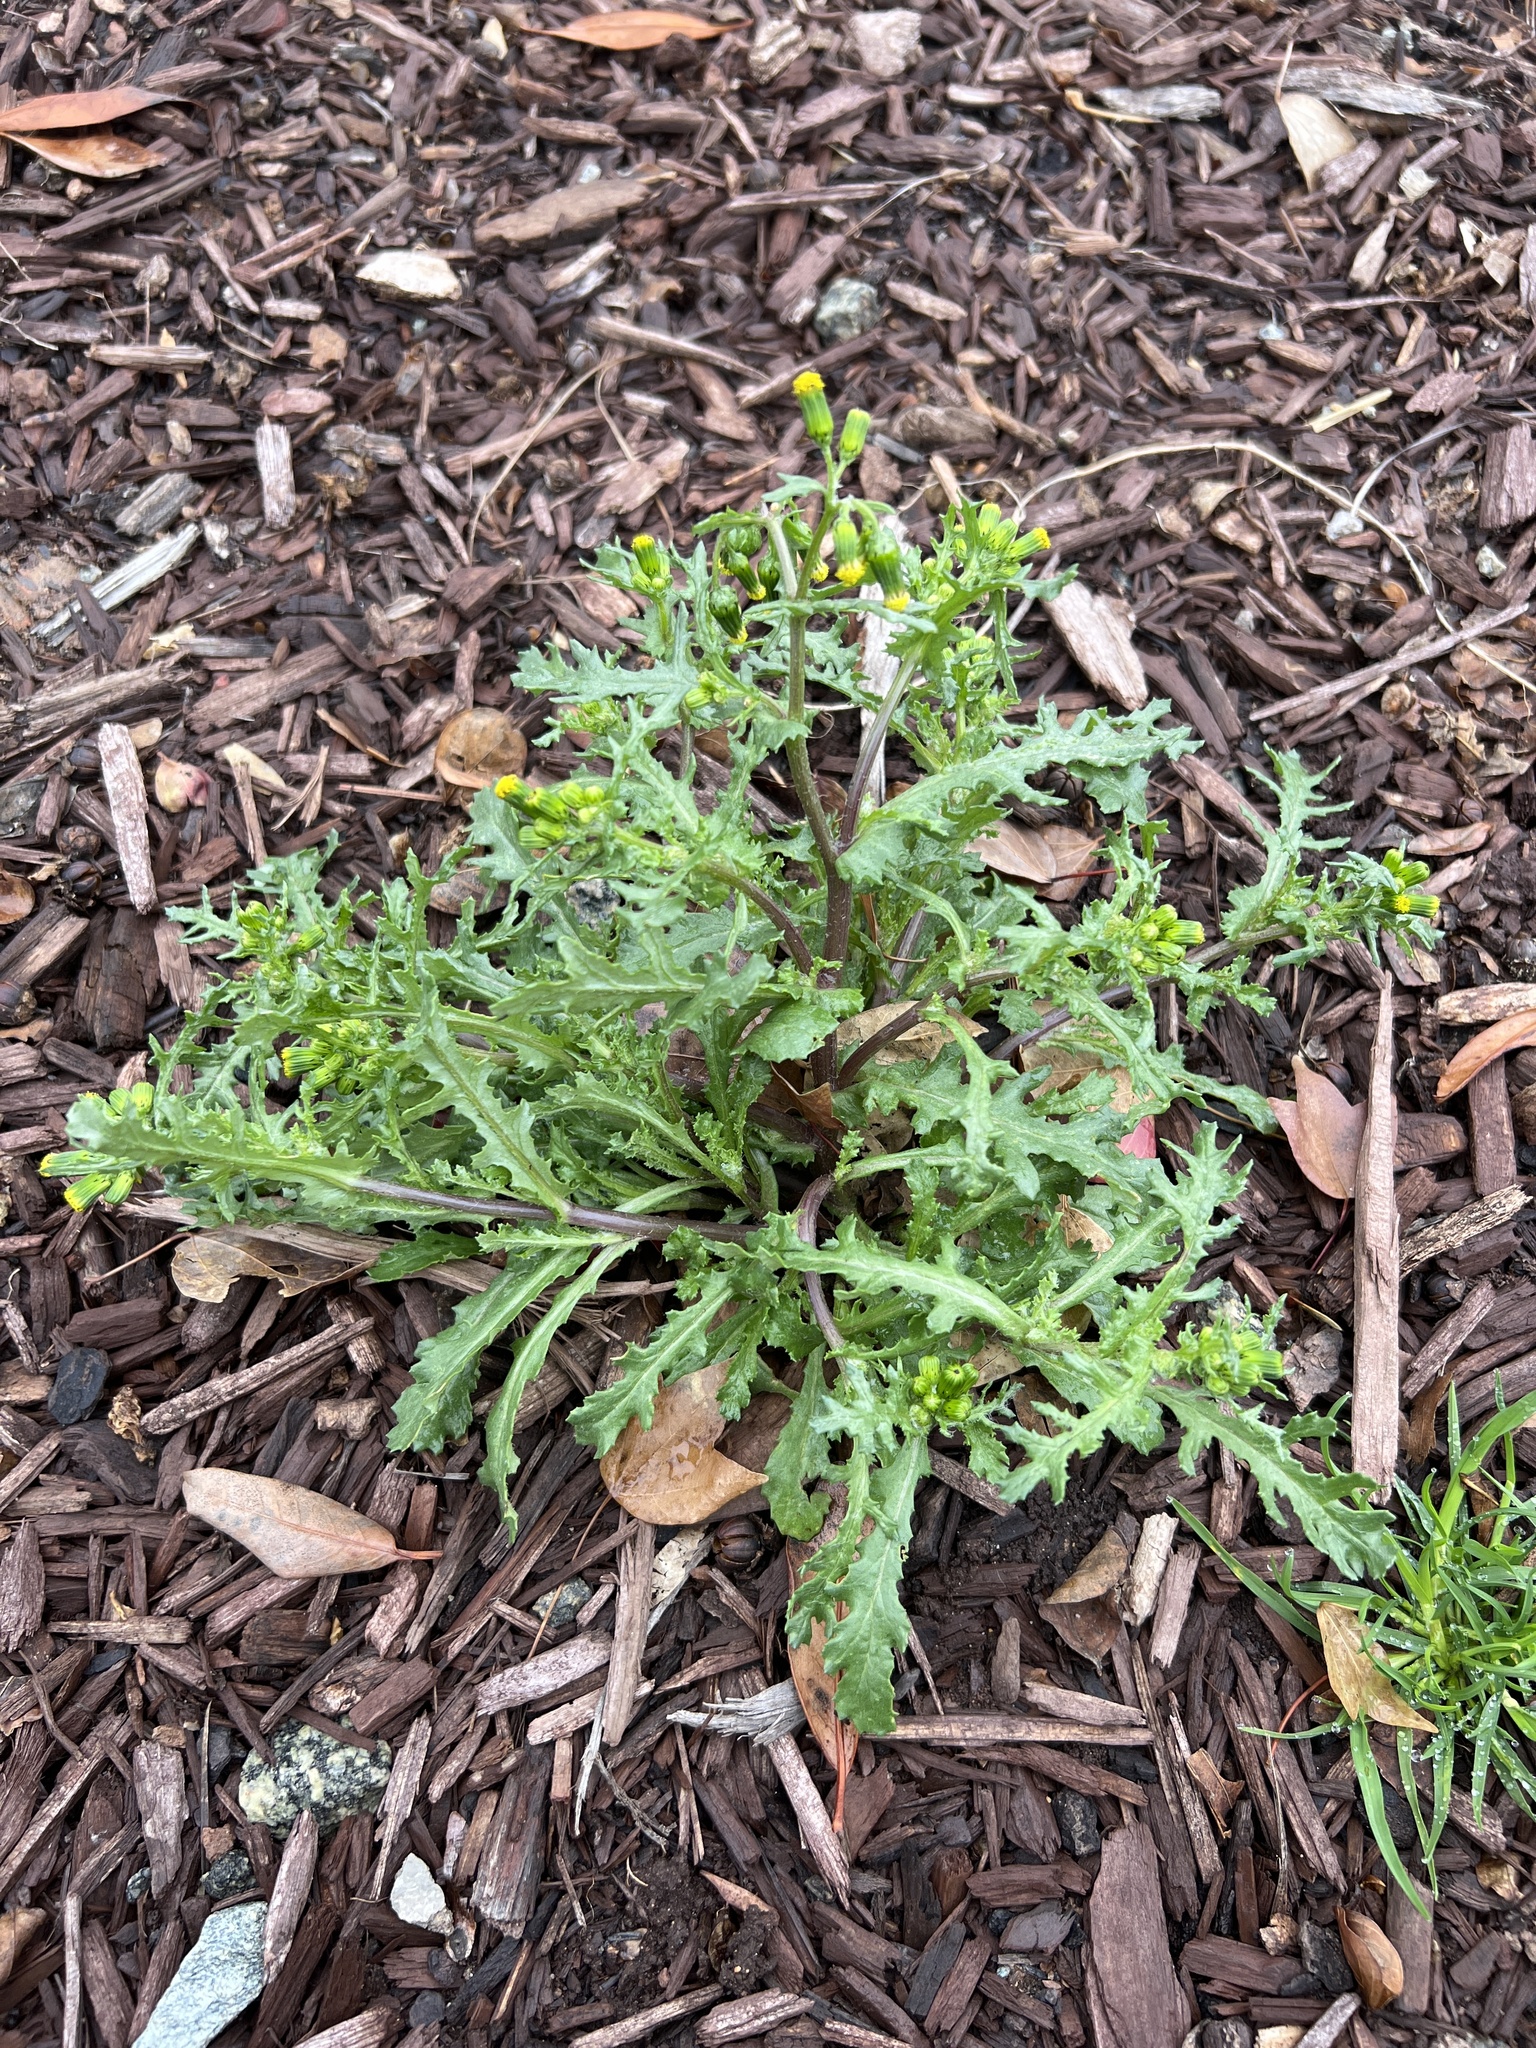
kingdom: Plantae
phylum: Tracheophyta
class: Magnoliopsida
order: Asterales
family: Asteraceae
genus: Senecio
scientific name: Senecio vulgaris
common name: Old-man-in-the-spring
